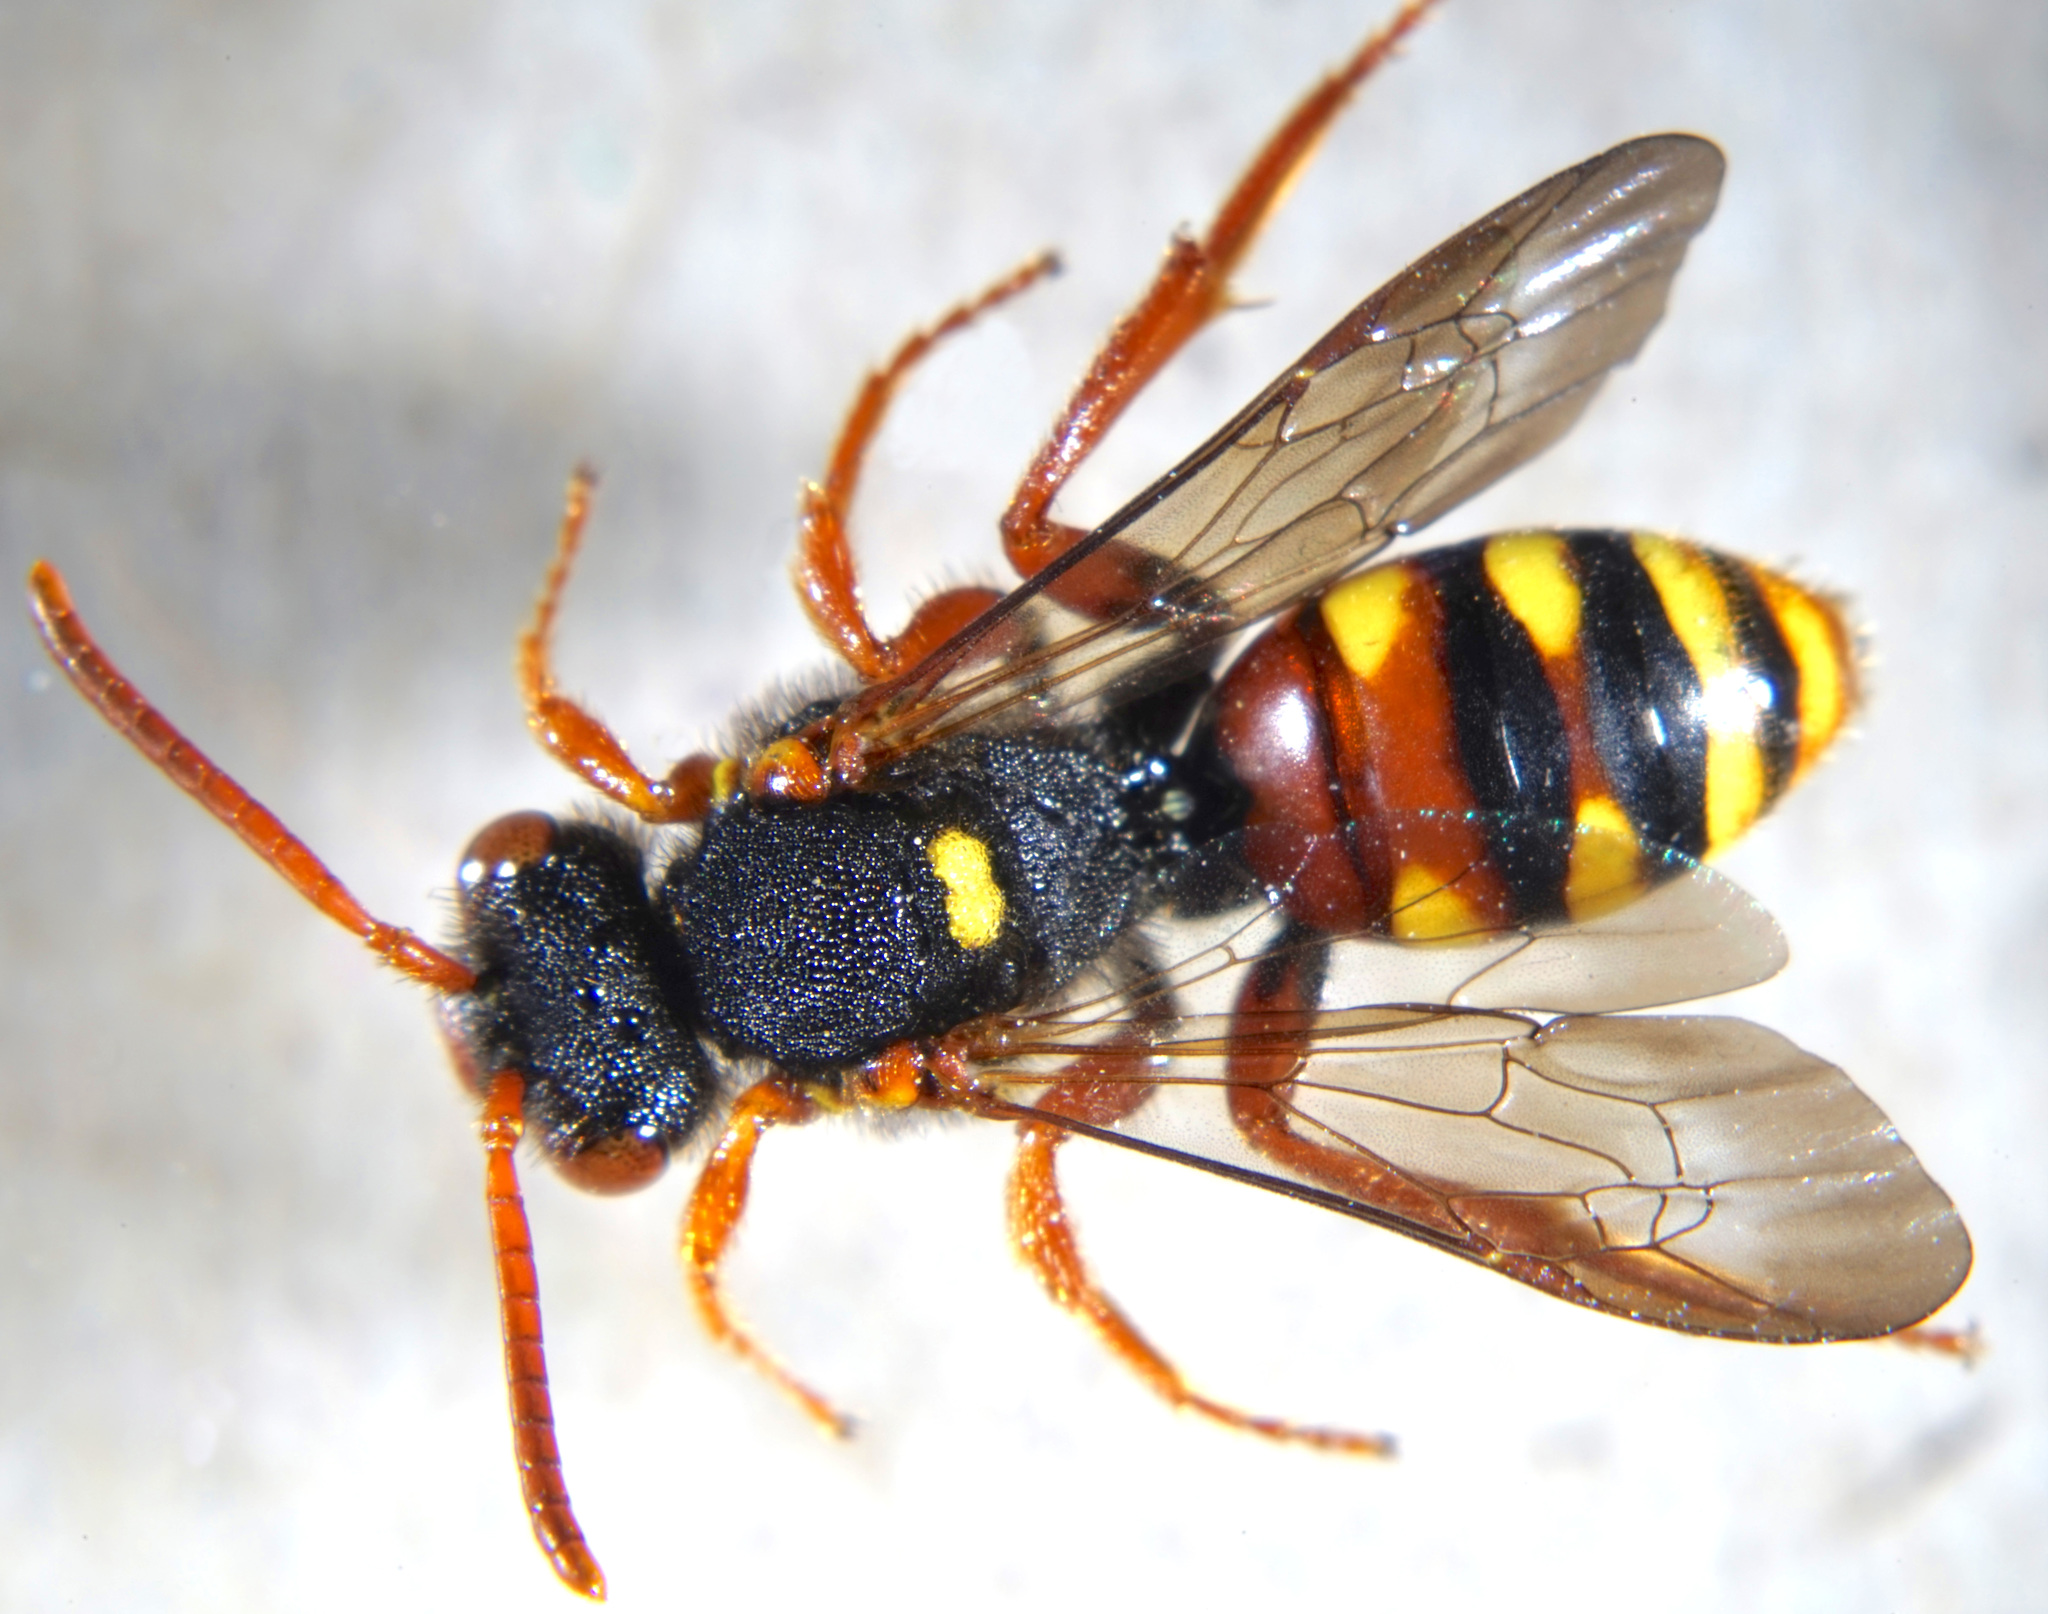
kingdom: Animalia
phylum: Arthropoda
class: Insecta
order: Hymenoptera
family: Apidae
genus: Nomada
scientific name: Nomada bifasciata
